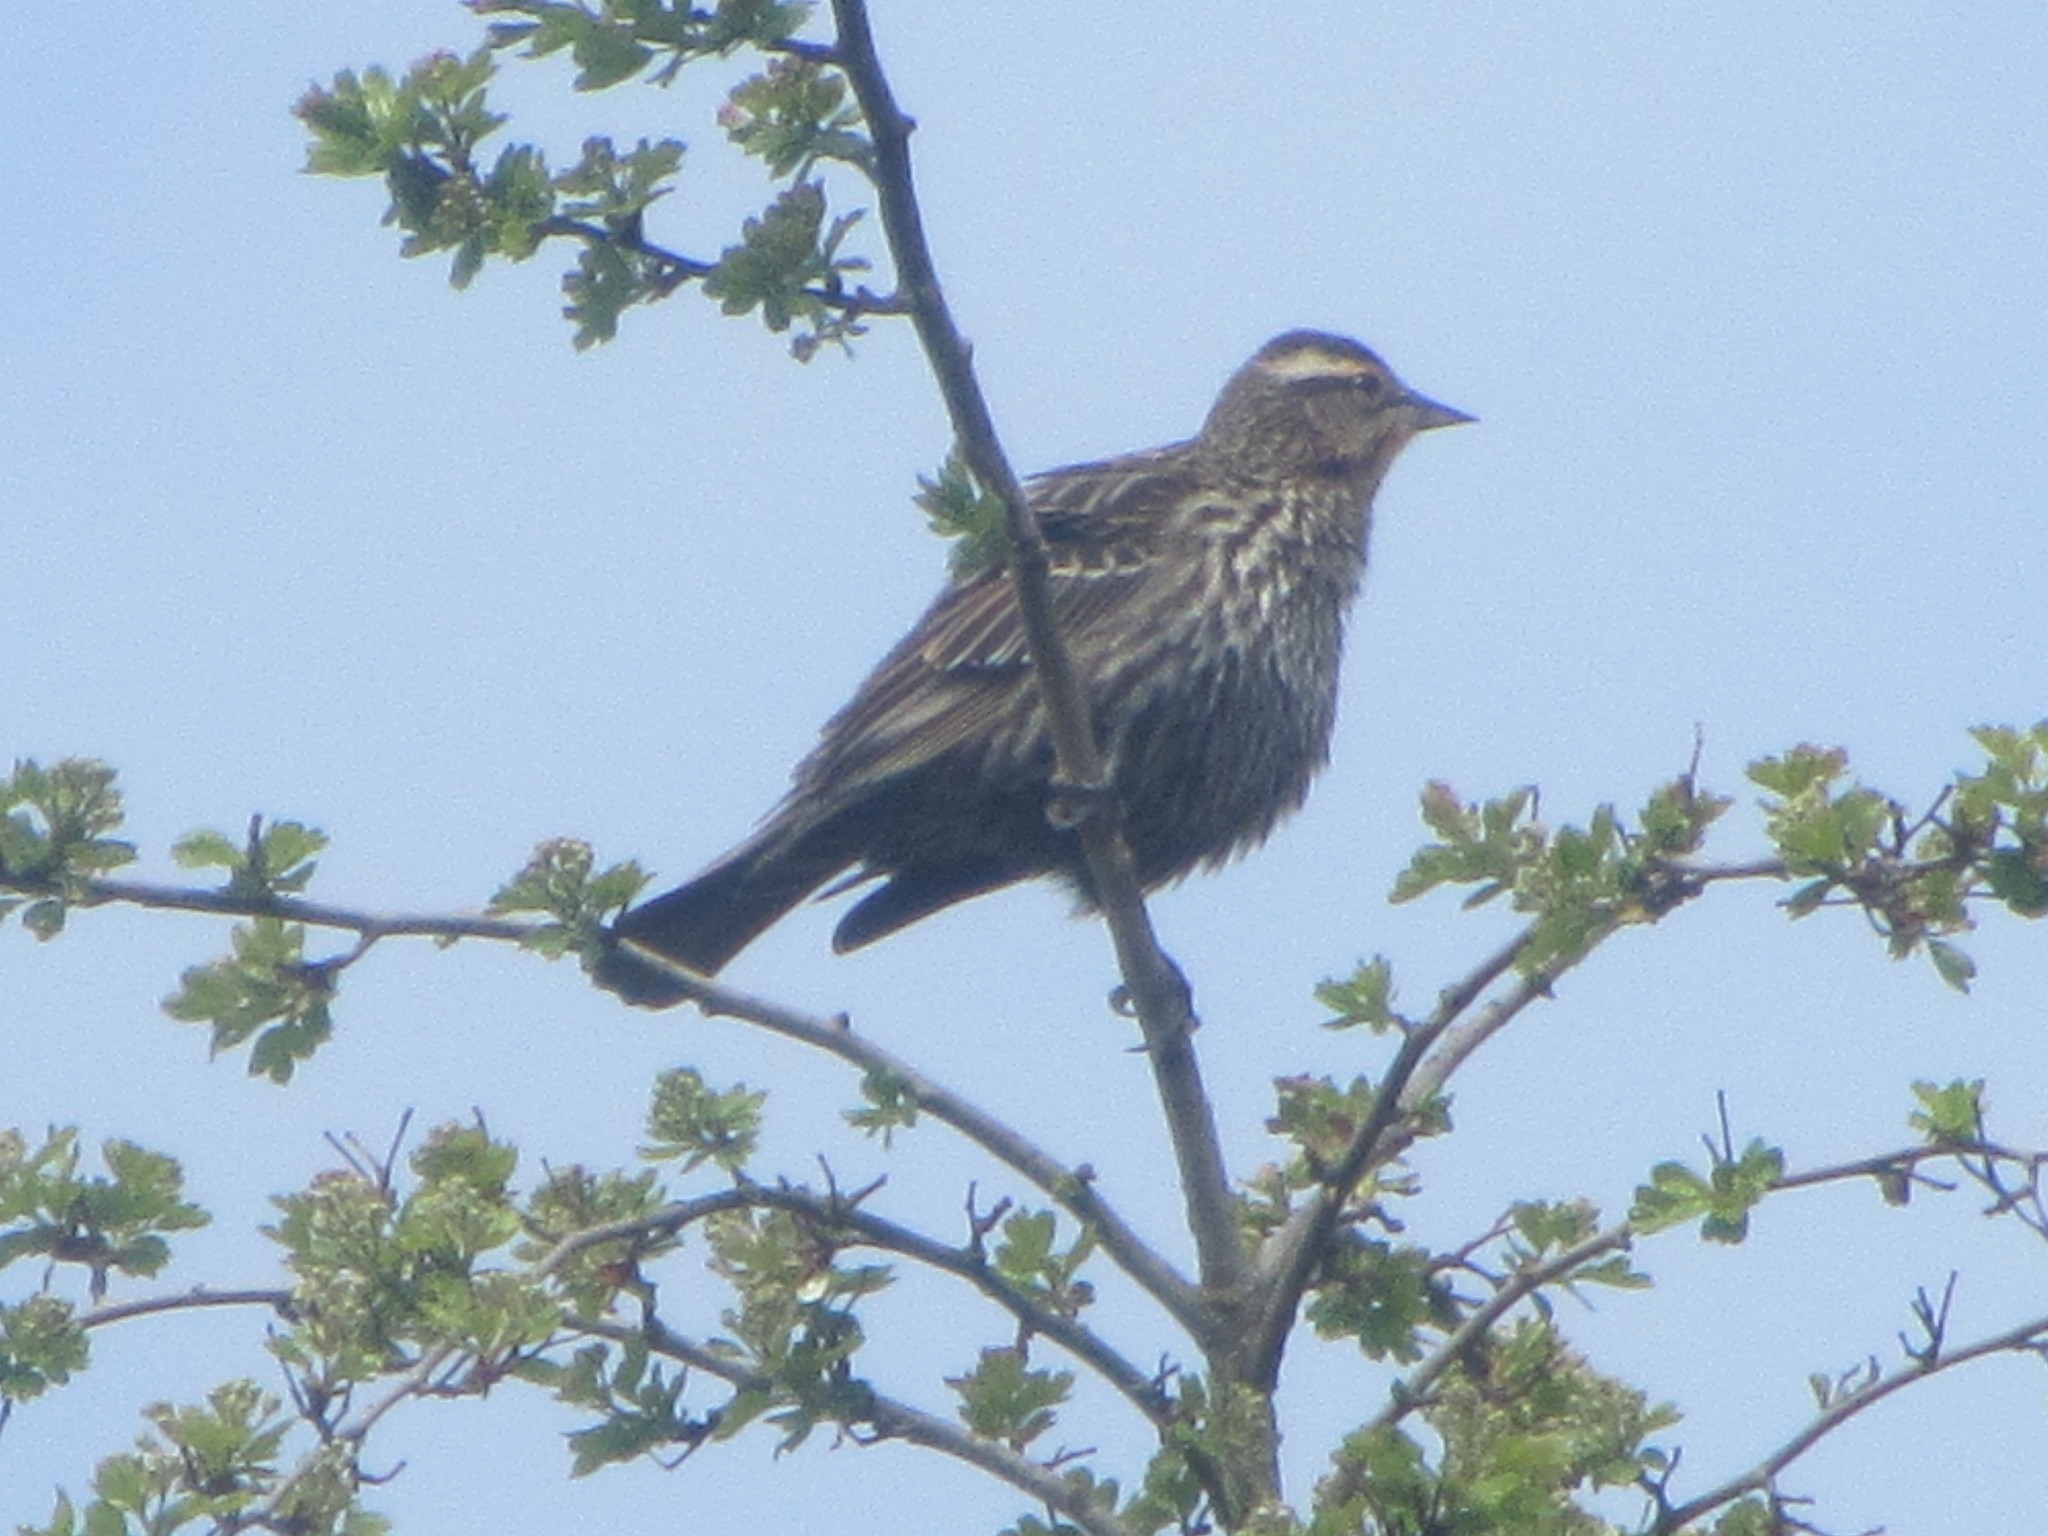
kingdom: Animalia
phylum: Chordata
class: Aves
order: Passeriformes
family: Icteridae
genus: Agelaius
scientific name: Agelaius phoeniceus
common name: Red-winged blackbird
